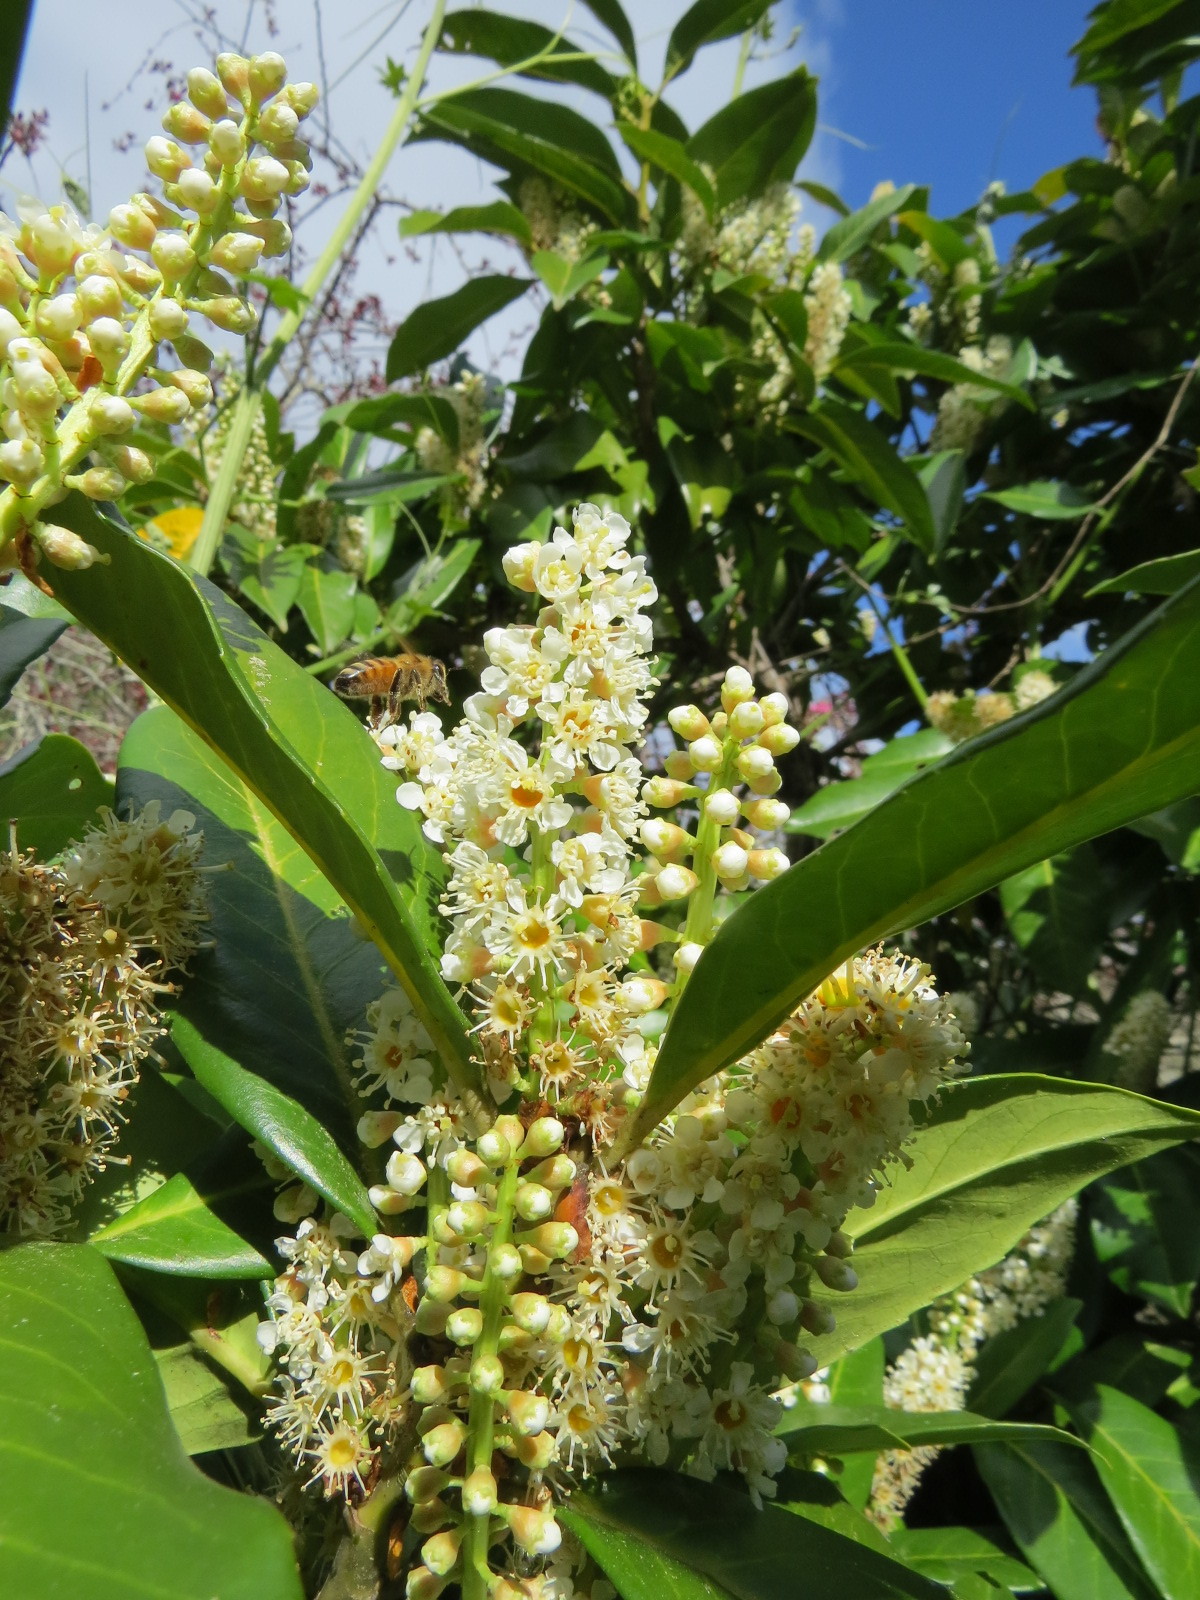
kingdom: Animalia
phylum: Arthropoda
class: Insecta
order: Hymenoptera
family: Apidae
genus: Apis
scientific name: Apis mellifera
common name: Honey bee
